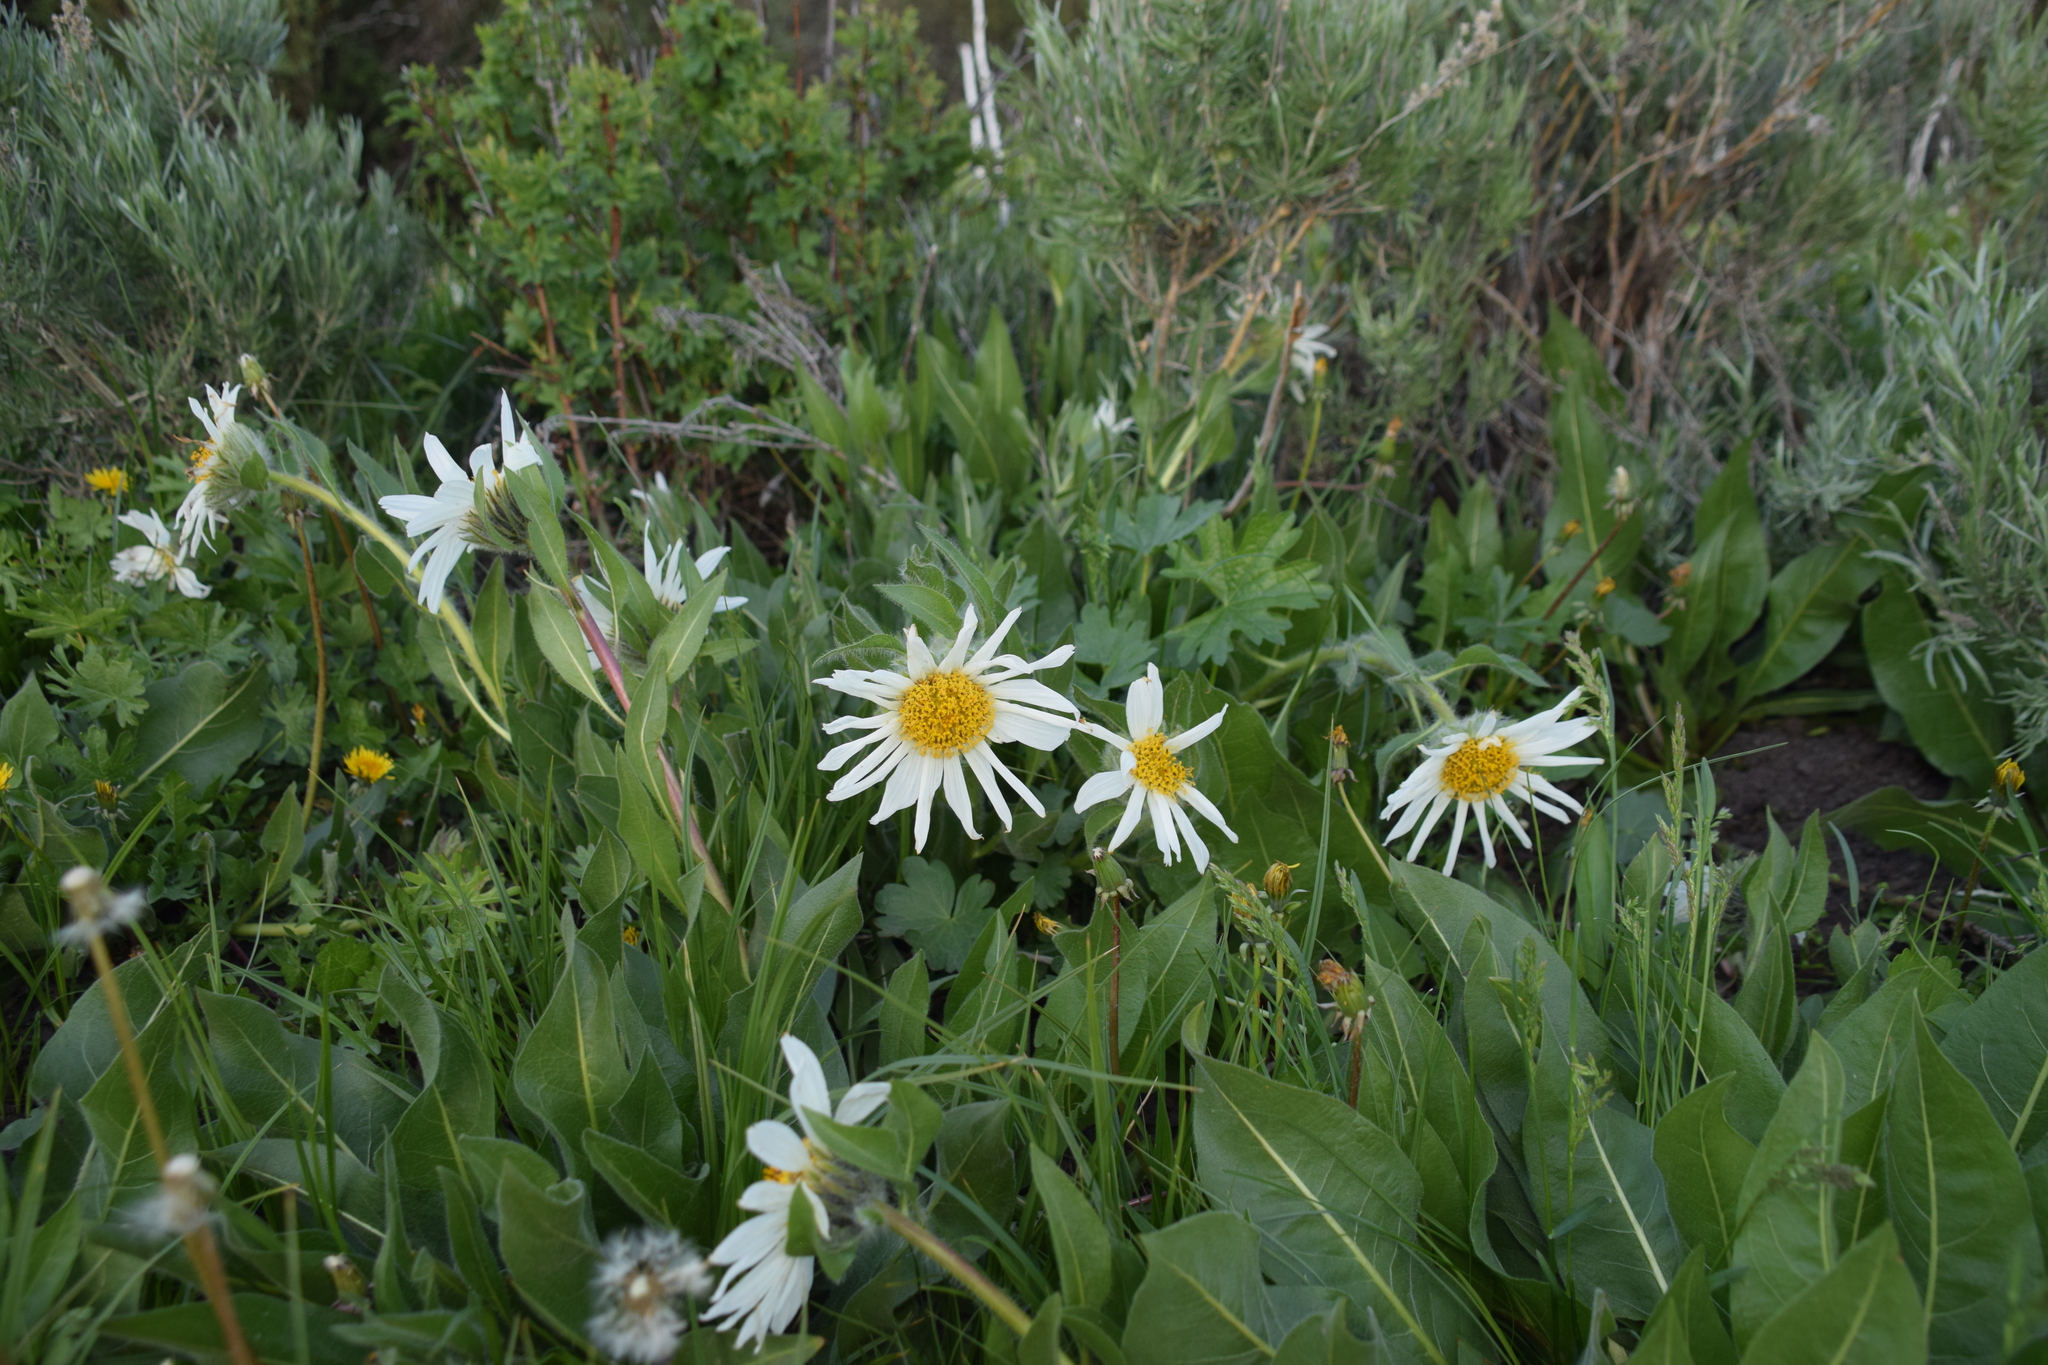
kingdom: Plantae
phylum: Tracheophyta
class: Magnoliopsida
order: Asterales
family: Asteraceae
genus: Wyethia
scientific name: Wyethia helianthoides
